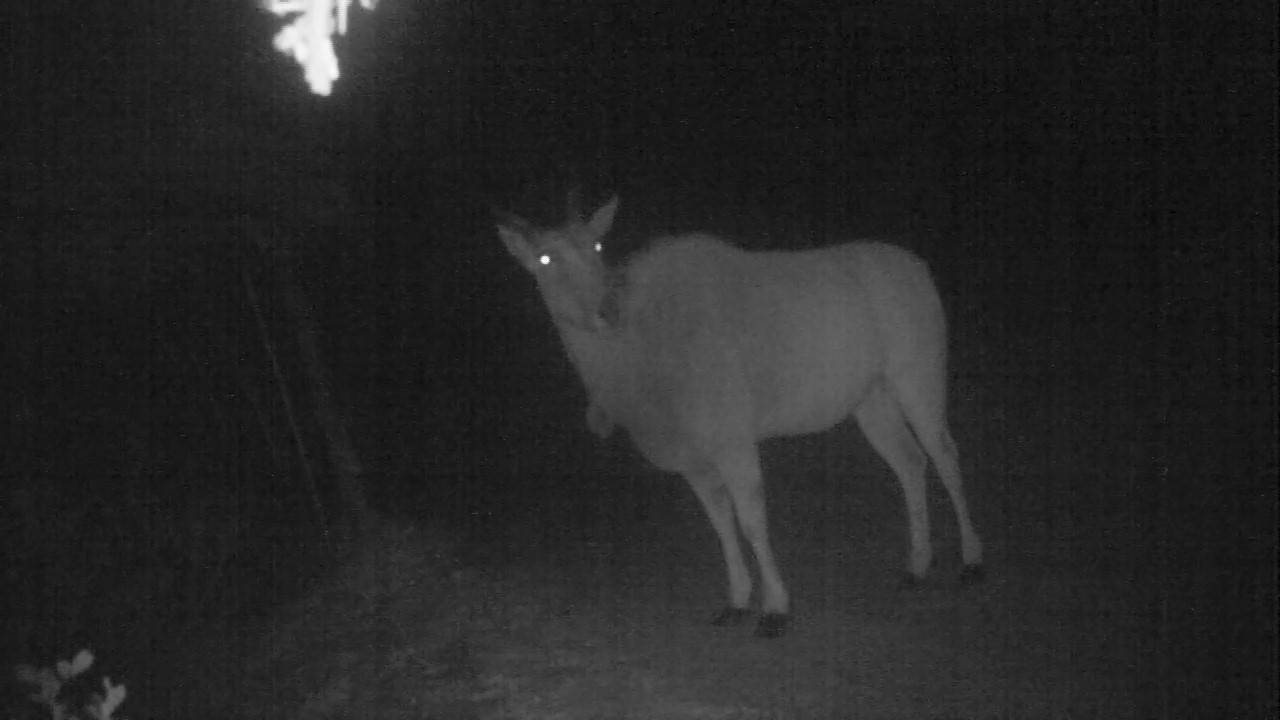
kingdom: Animalia
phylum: Chordata
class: Mammalia
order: Artiodactyla
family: Bovidae
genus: Taurotragus
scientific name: Taurotragus oryx
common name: Common eland
